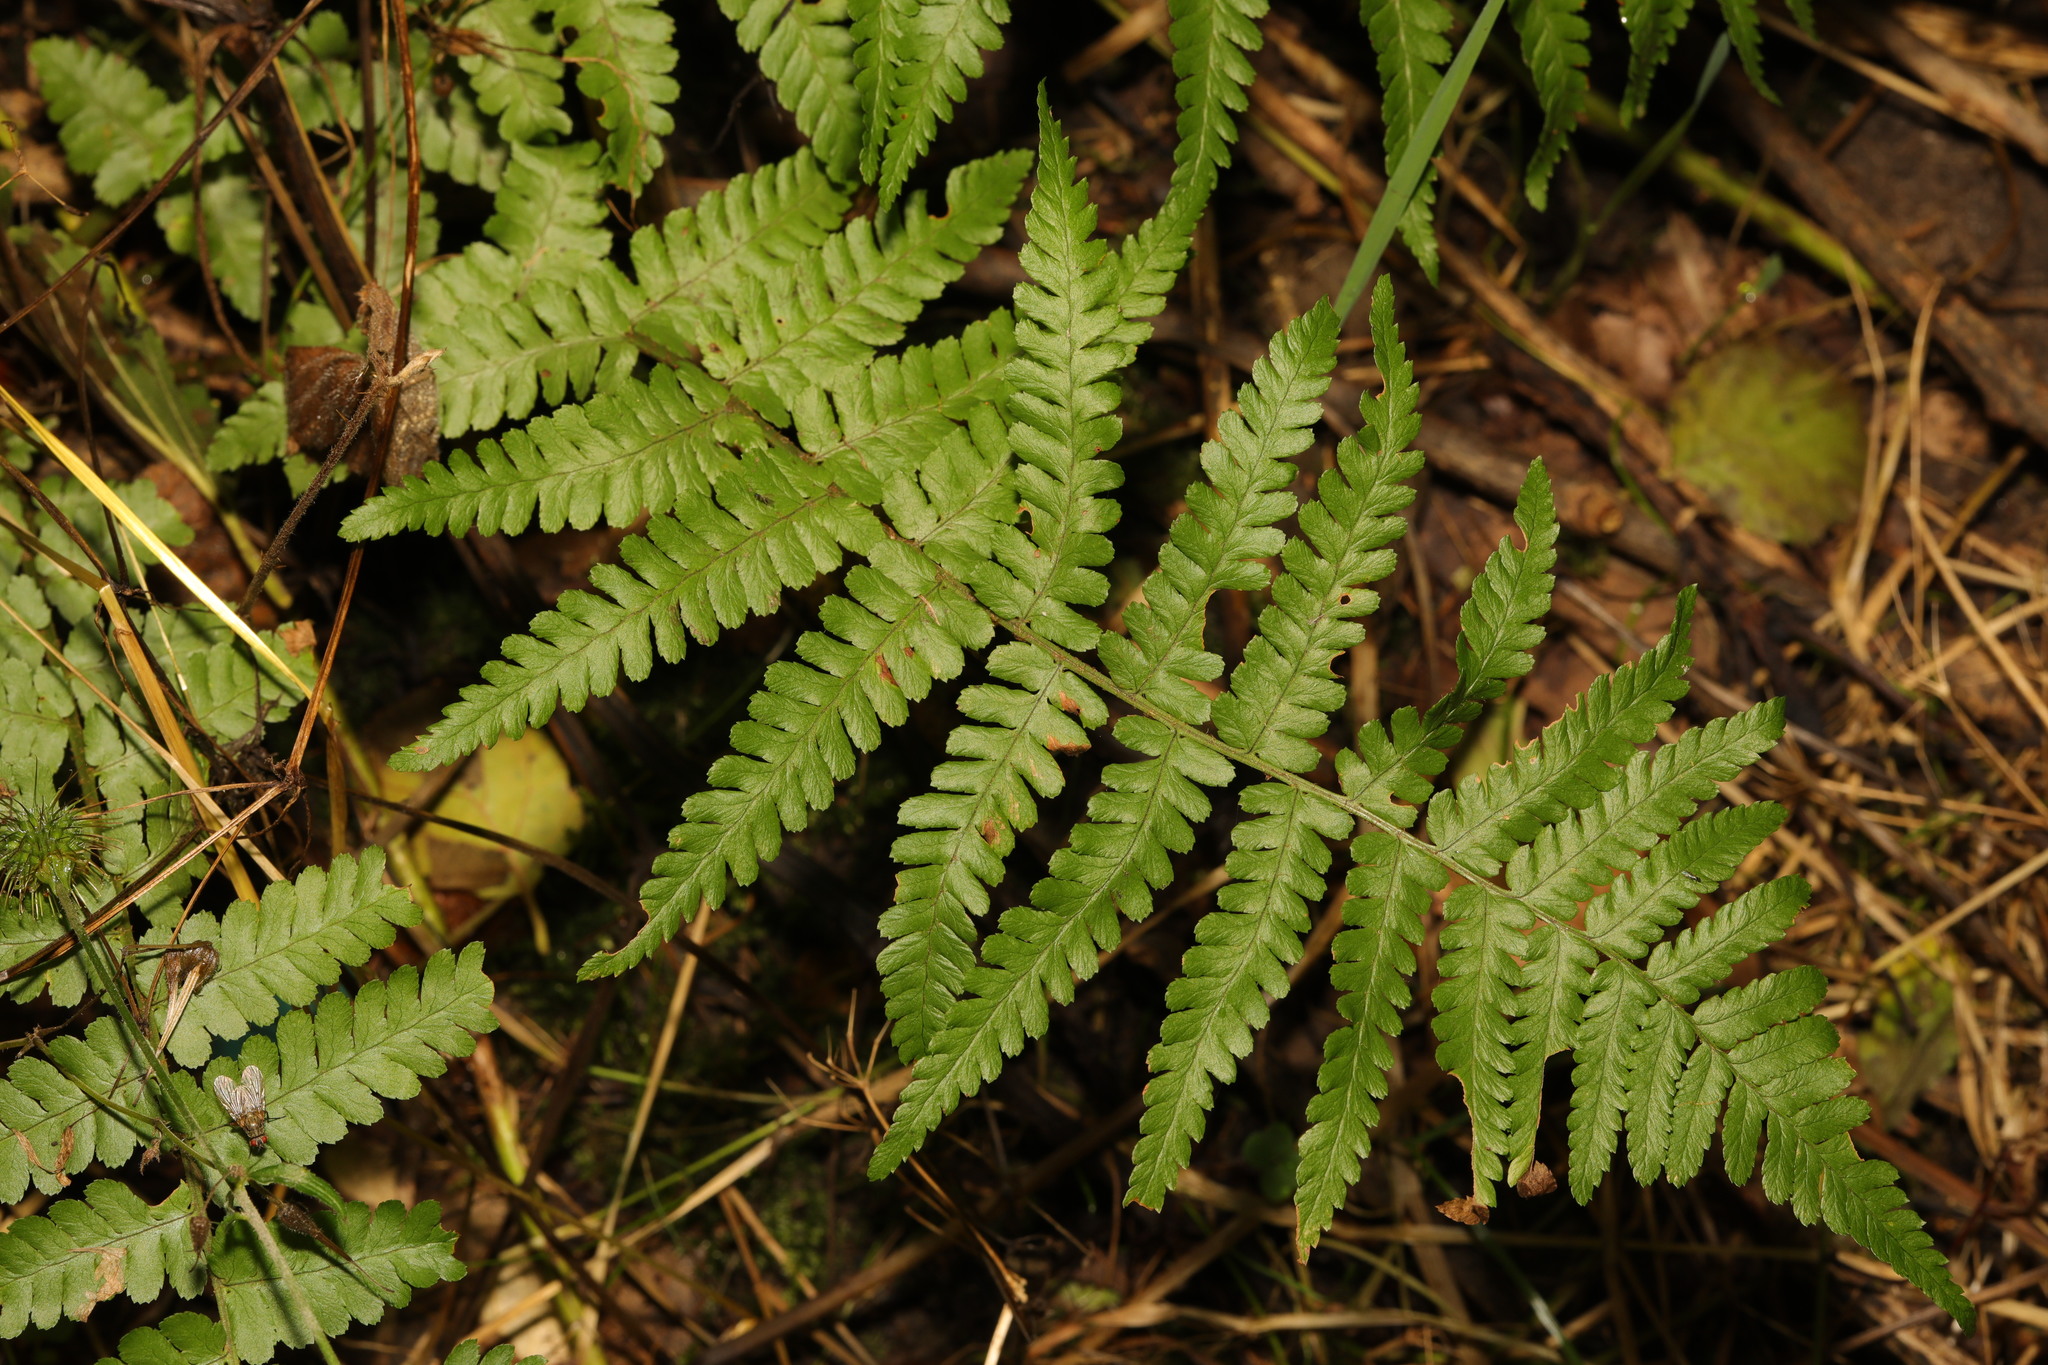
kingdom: Plantae
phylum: Tracheophyta
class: Polypodiopsida
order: Polypodiales
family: Dryopteridaceae
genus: Dryopteris
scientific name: Dryopteris filix-mas
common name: Male fern
